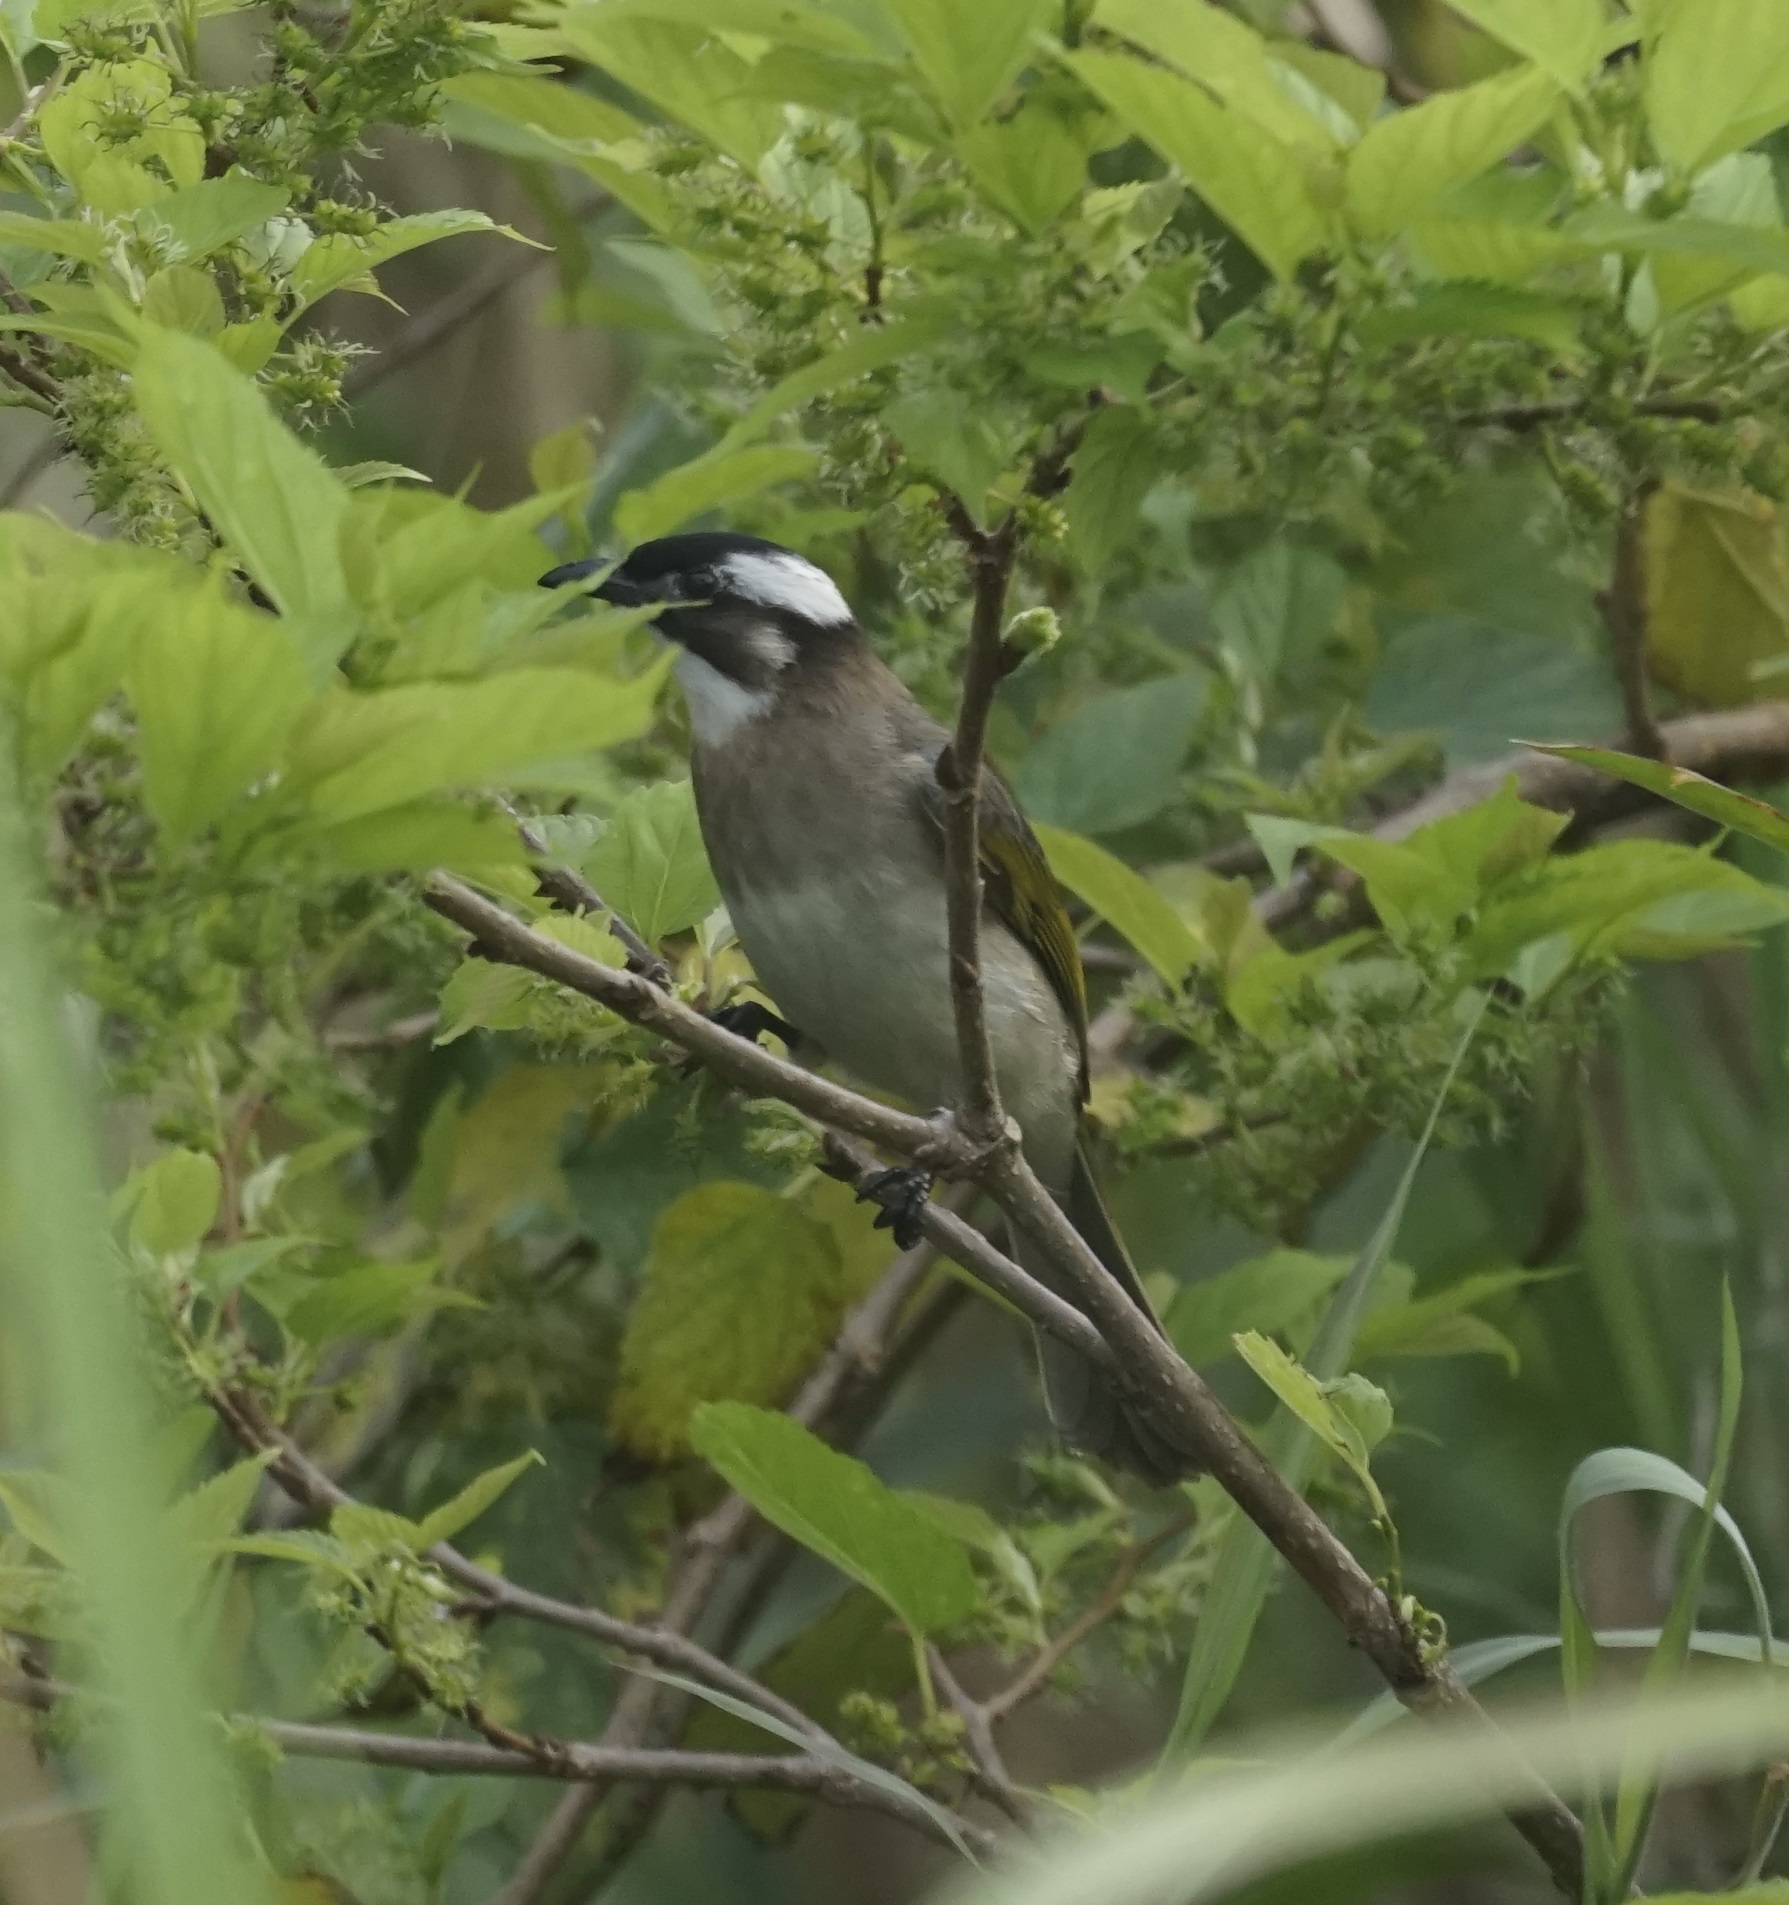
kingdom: Animalia
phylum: Chordata
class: Aves
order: Passeriformes
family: Pycnonotidae
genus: Pycnonotus
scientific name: Pycnonotus sinensis
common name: Light-vented bulbul
